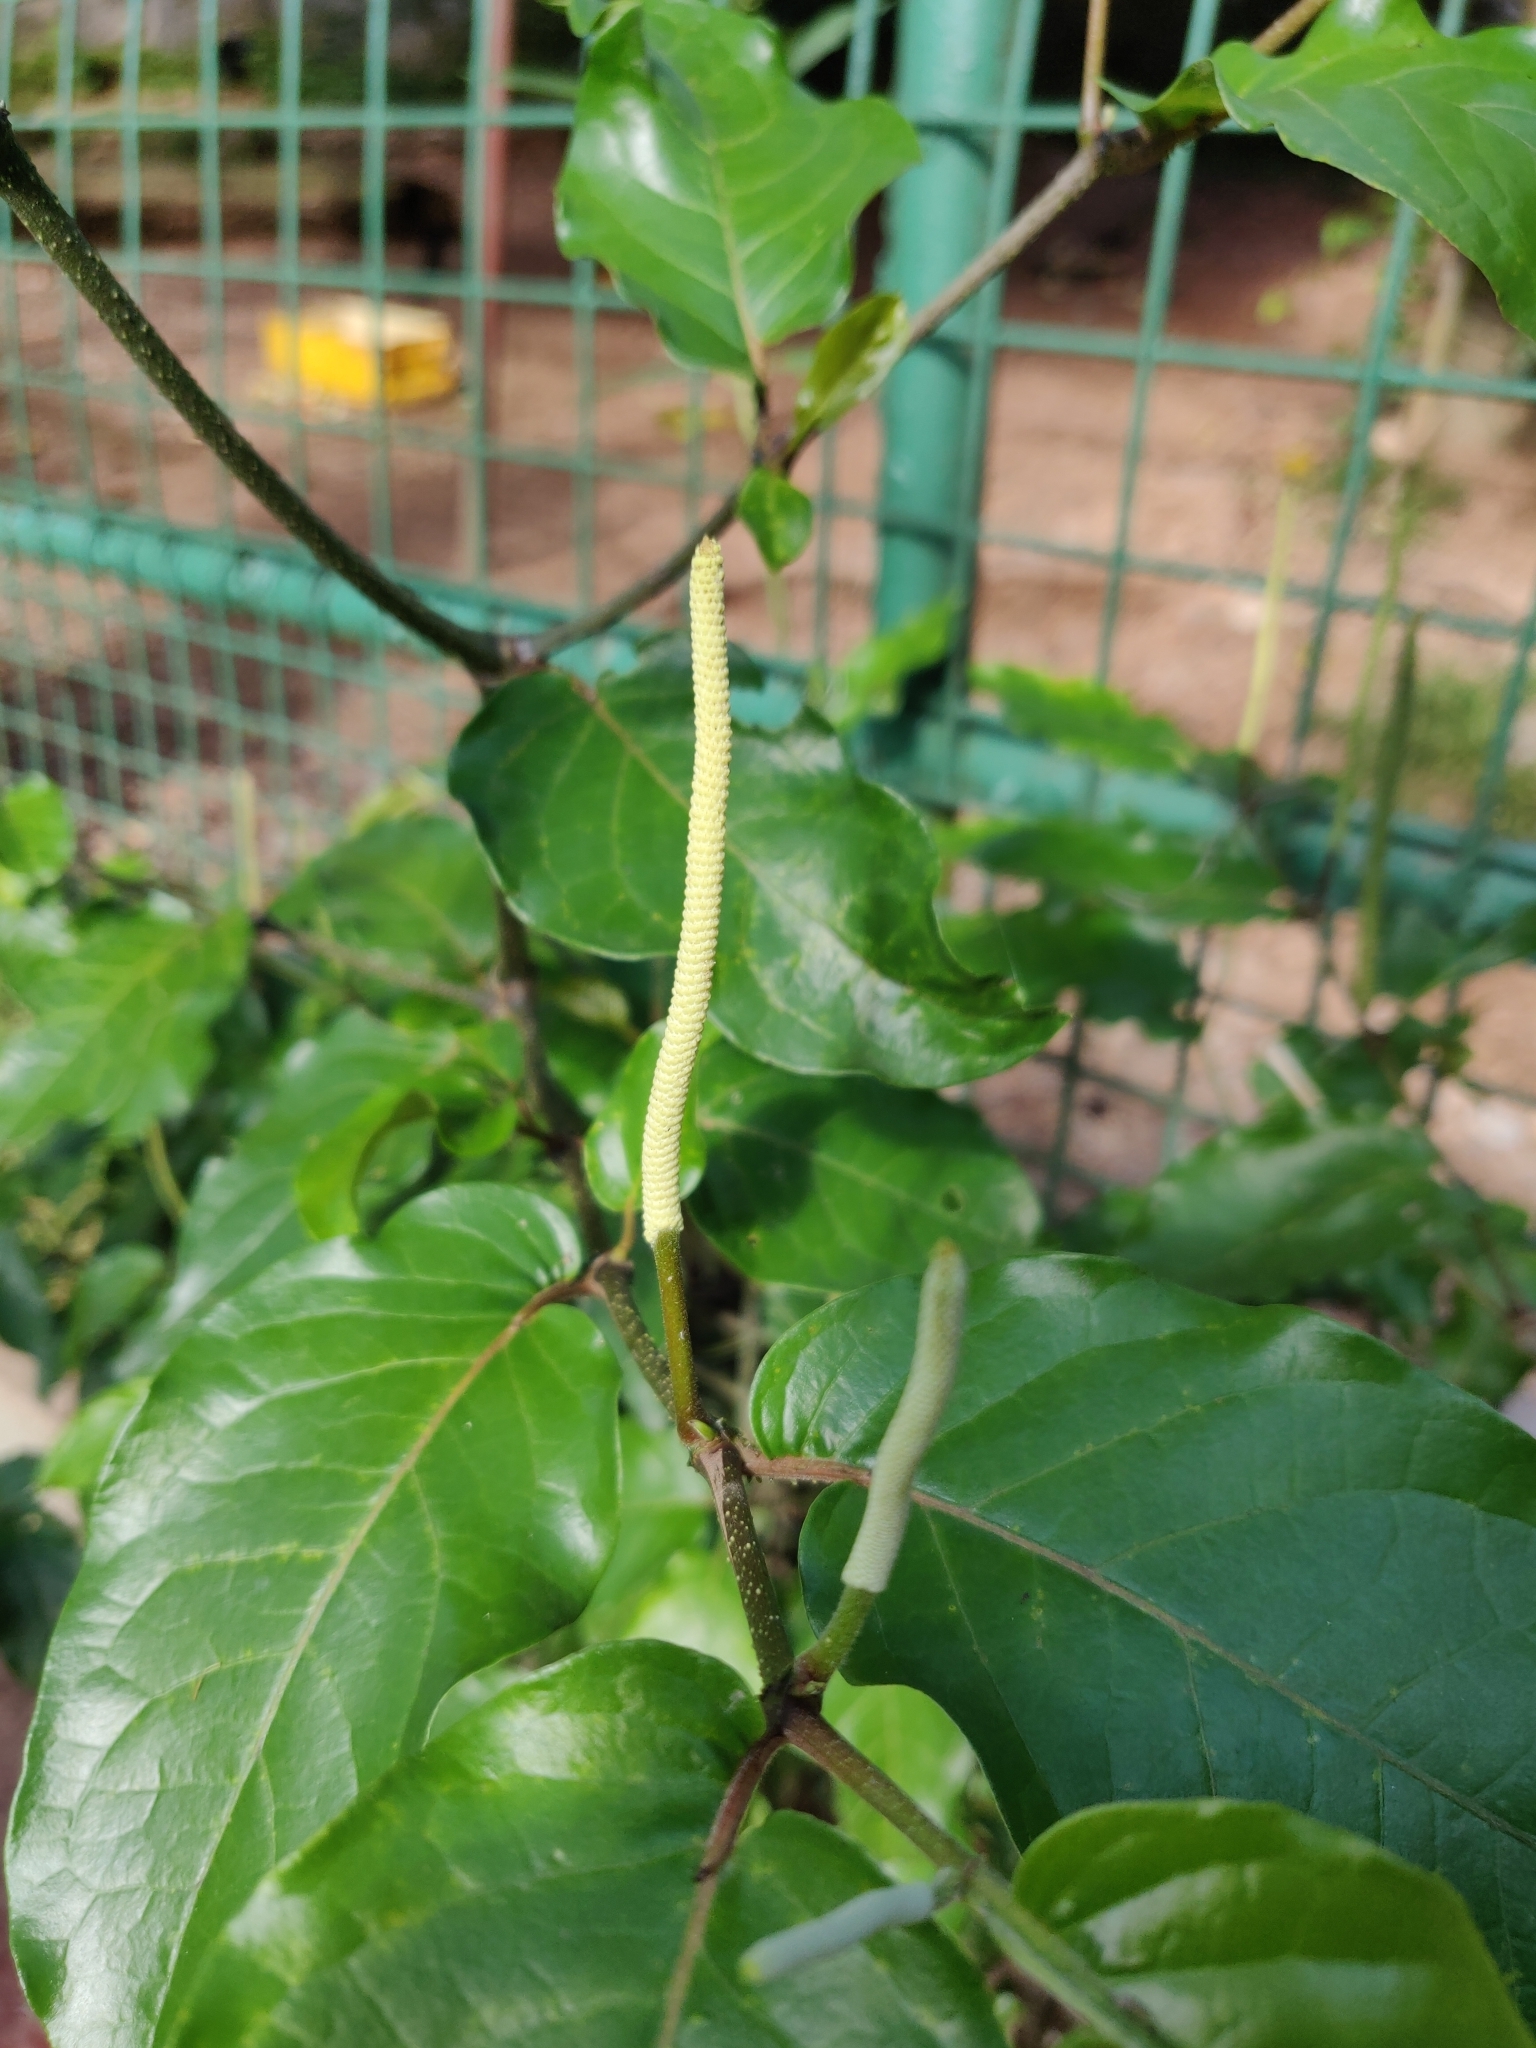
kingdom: Plantae
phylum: Tracheophyta
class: Magnoliopsida
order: Piperales
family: Piperaceae
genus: Piper
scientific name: Piper aduncum
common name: Spiked pepper
